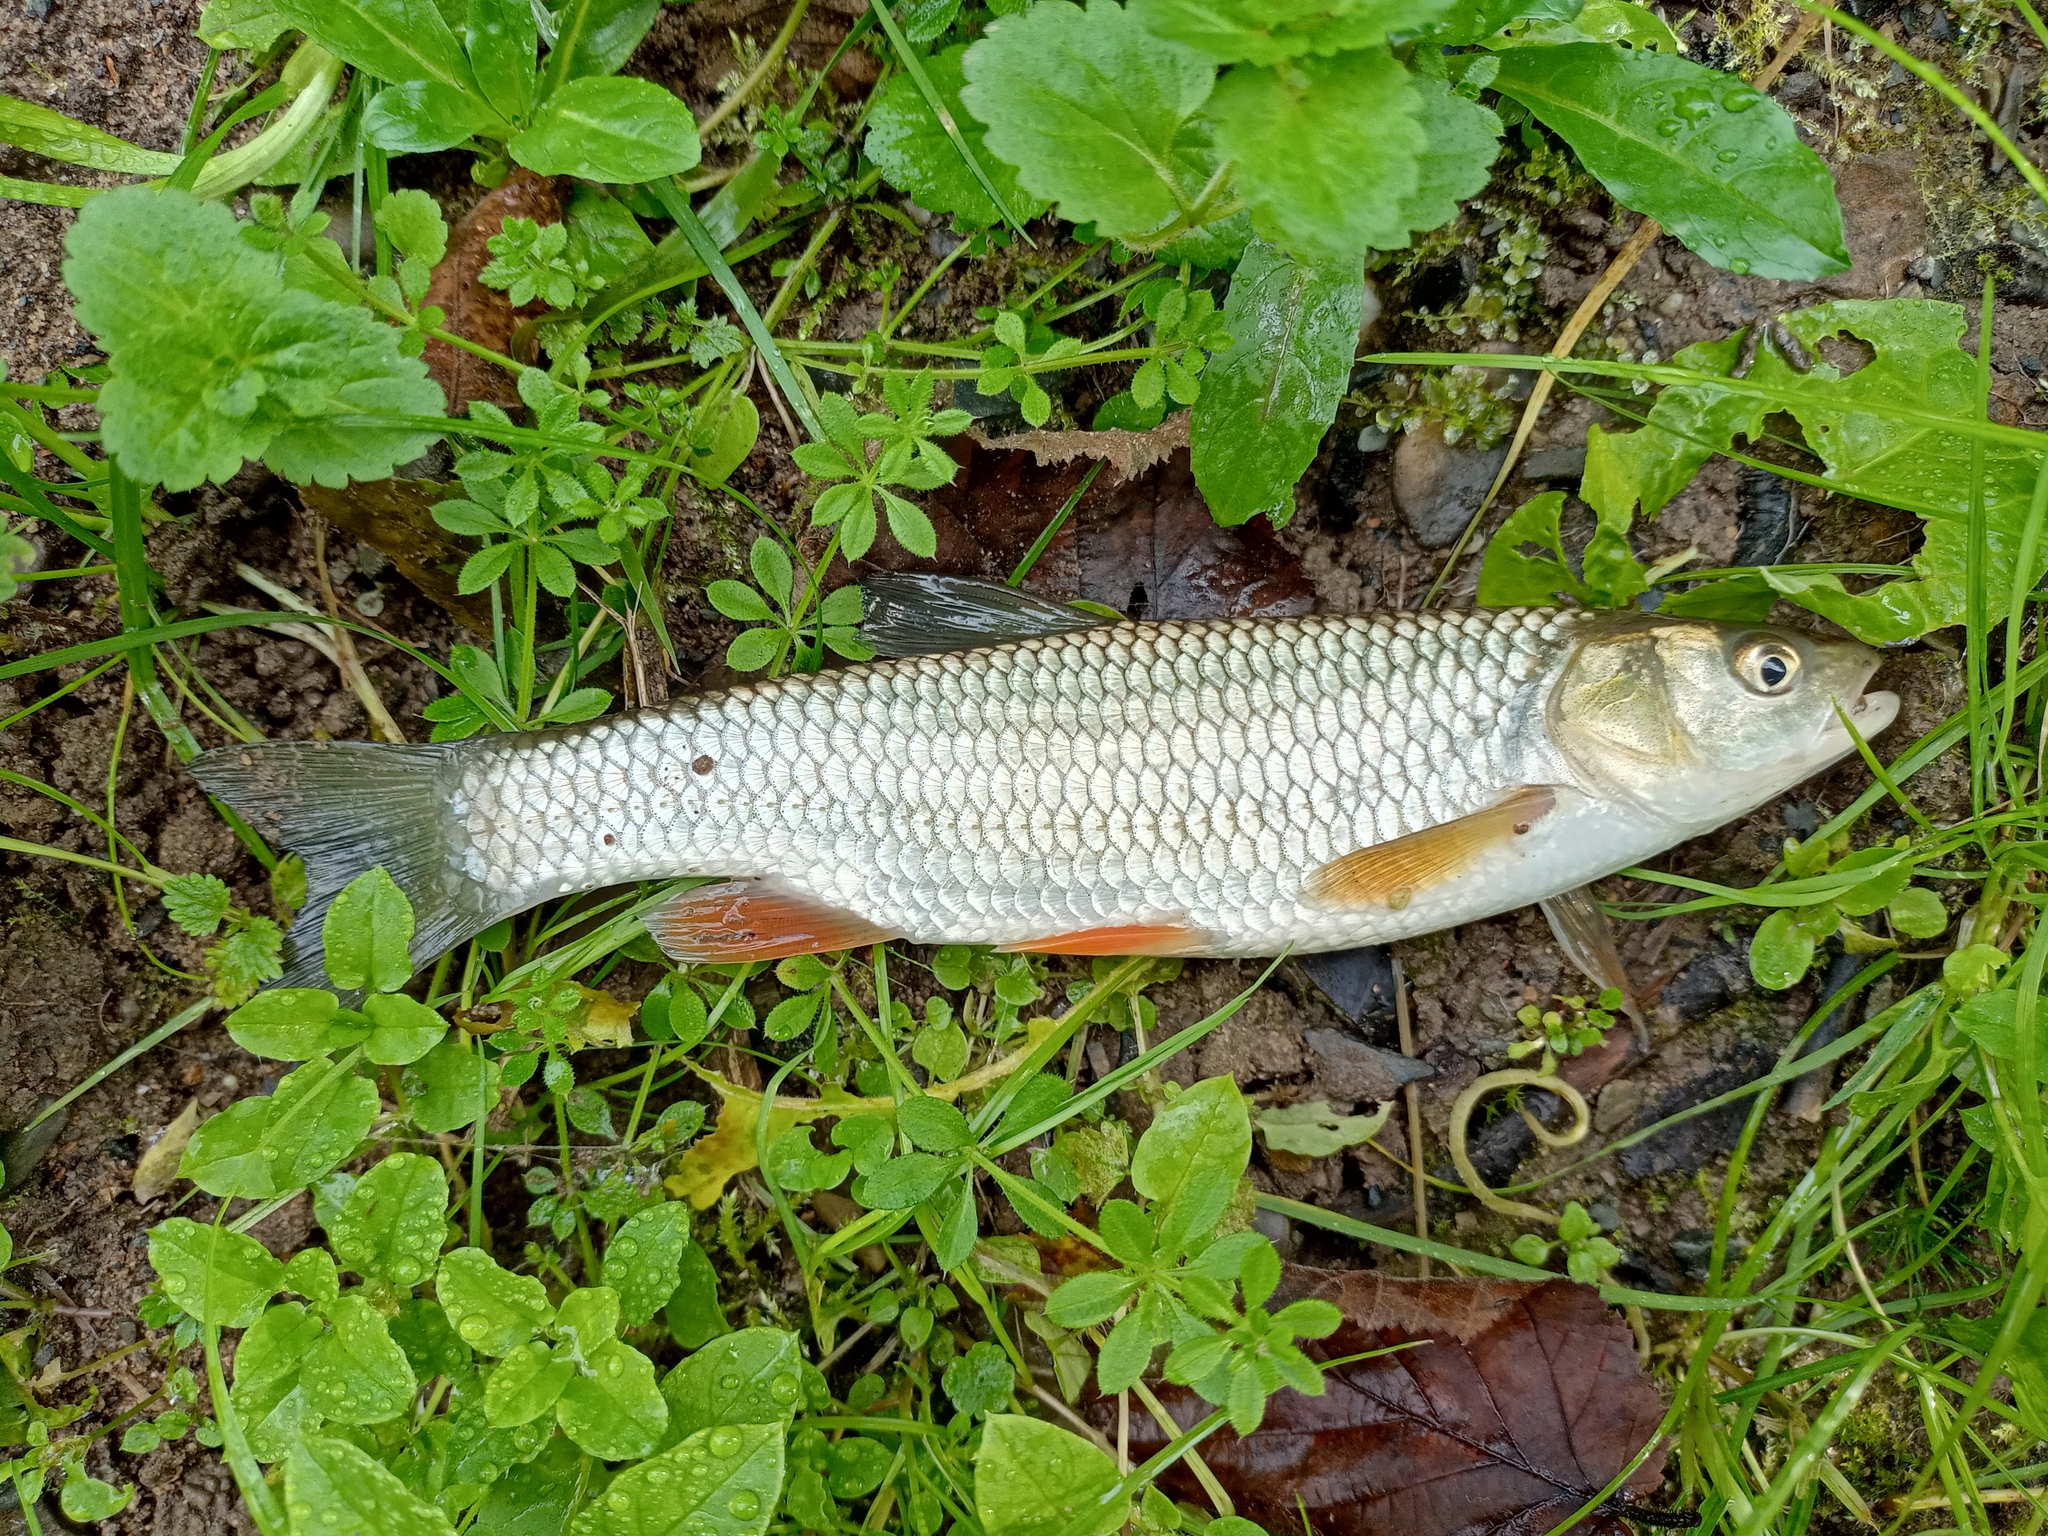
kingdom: Animalia
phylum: Chordata
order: Cypriniformes
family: Cyprinidae
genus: Squalius
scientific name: Squalius cephalus
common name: Chub
